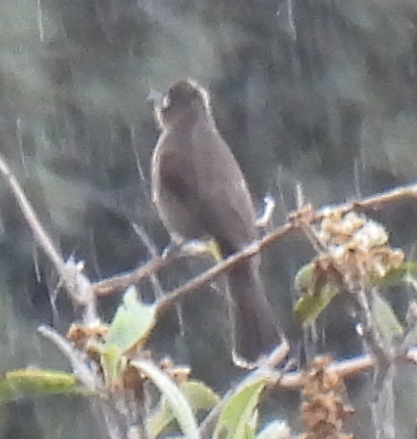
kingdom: Animalia
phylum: Chordata
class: Aves
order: Passeriformes
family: Pycnonotidae
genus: Pycnonotus
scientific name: Pycnonotus capensis
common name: Cape bulbul
